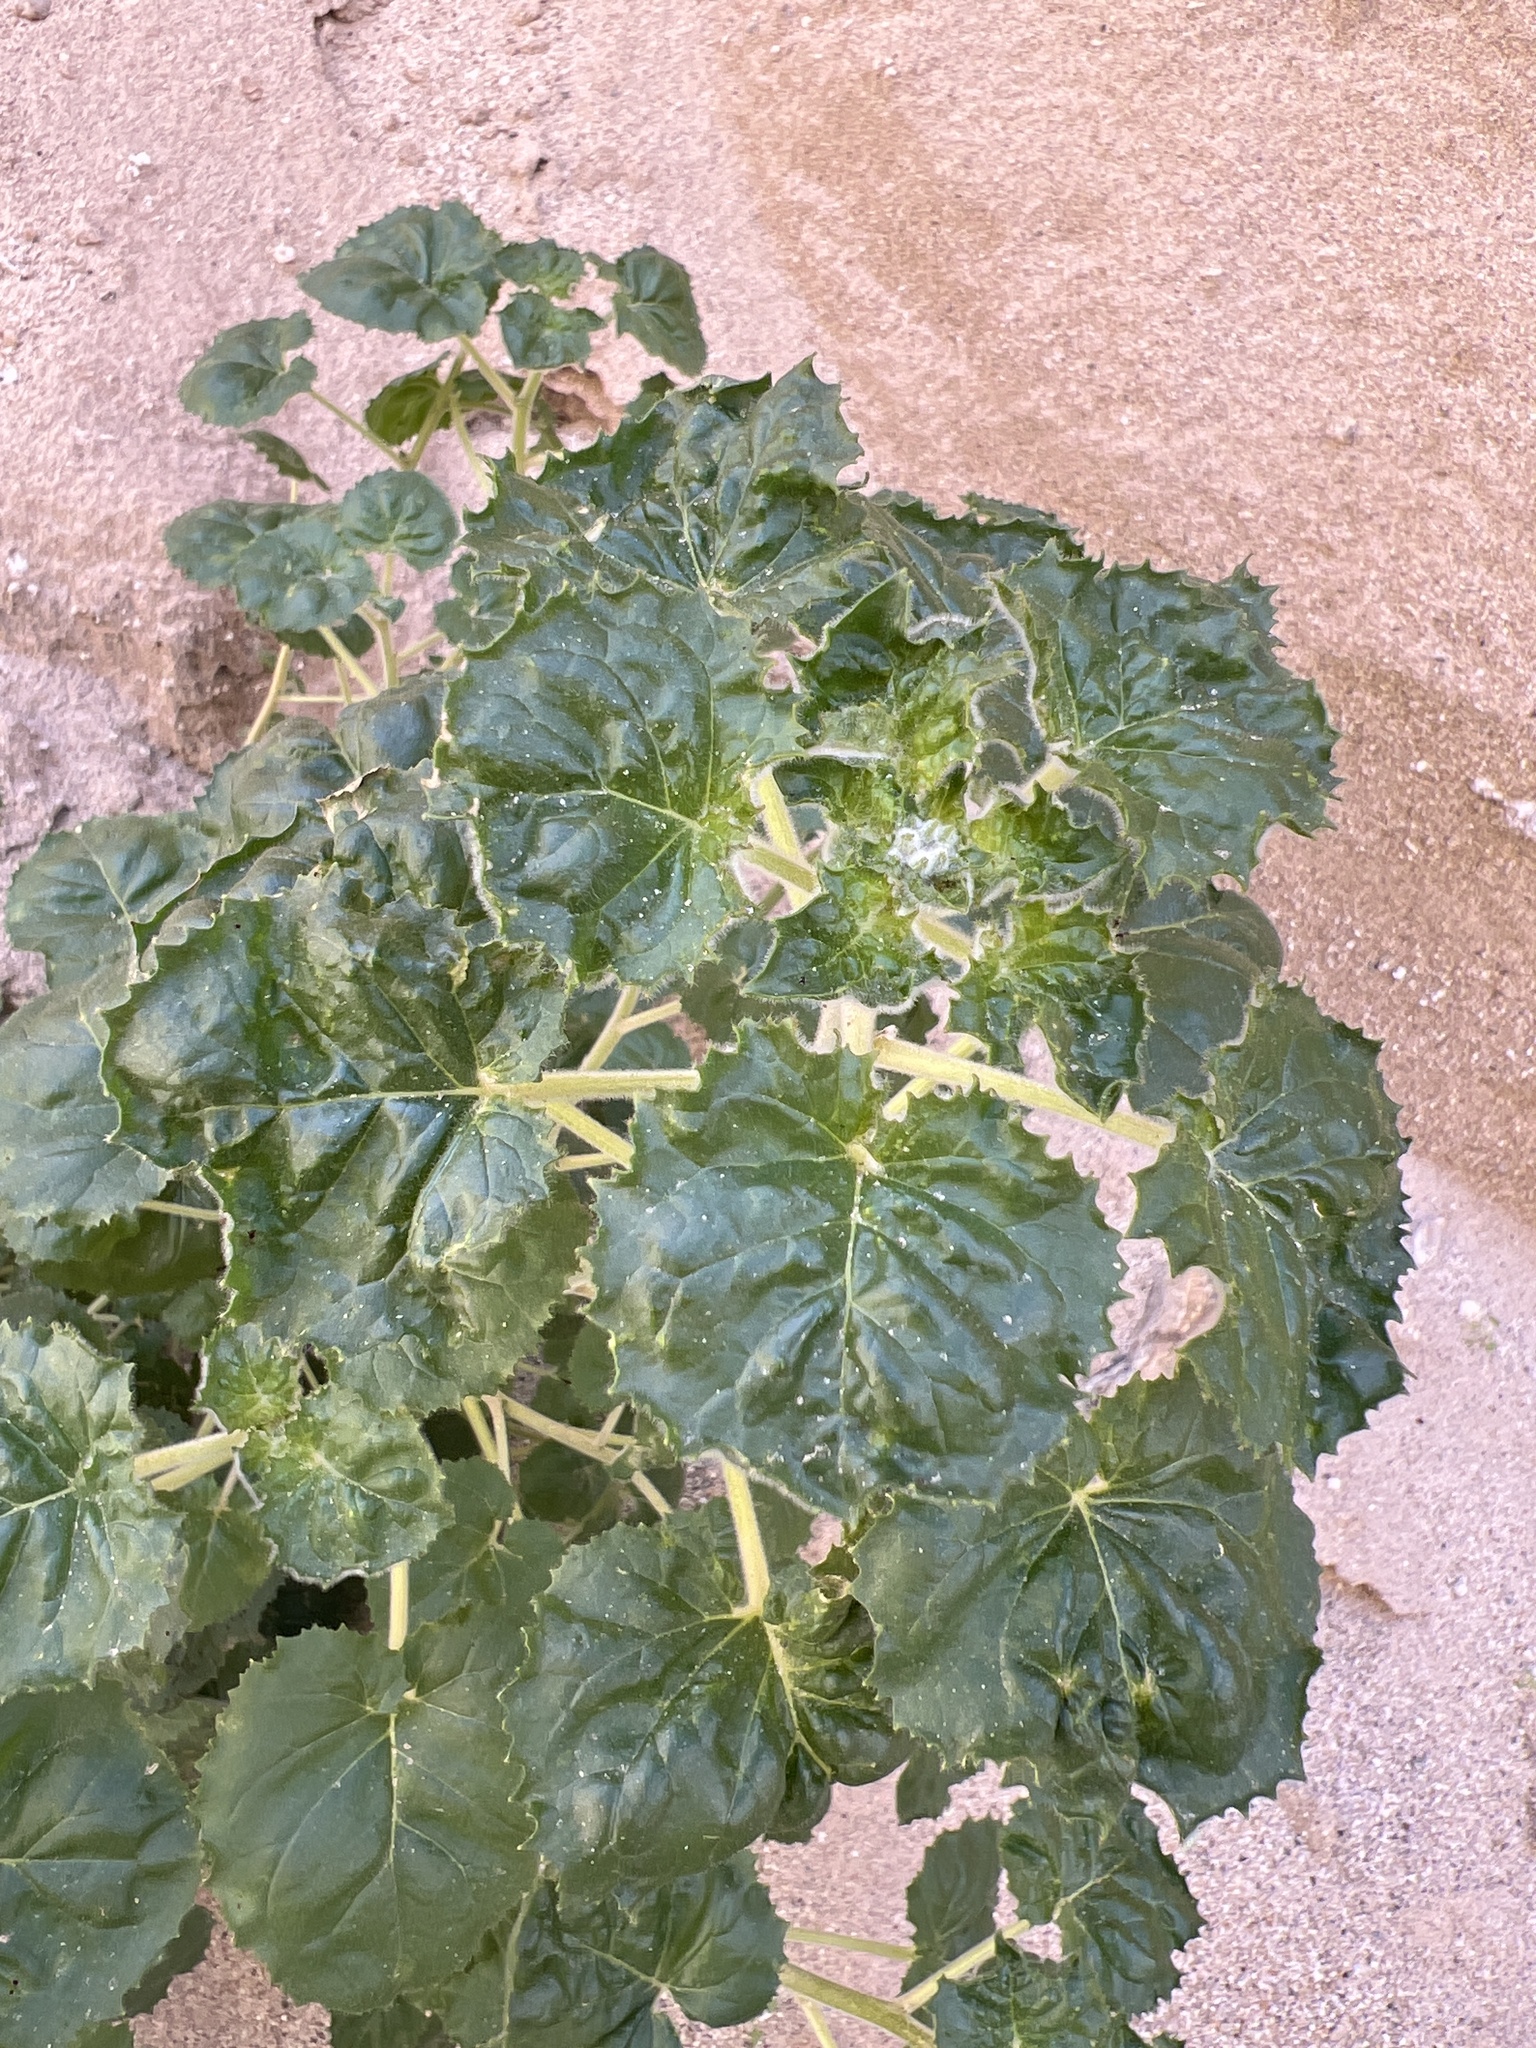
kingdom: Plantae
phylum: Tracheophyta
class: Magnoliopsida
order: Myrtales
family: Onagraceae
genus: Chylismia
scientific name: Chylismia cardiophylla
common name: Heartleaf suncup
